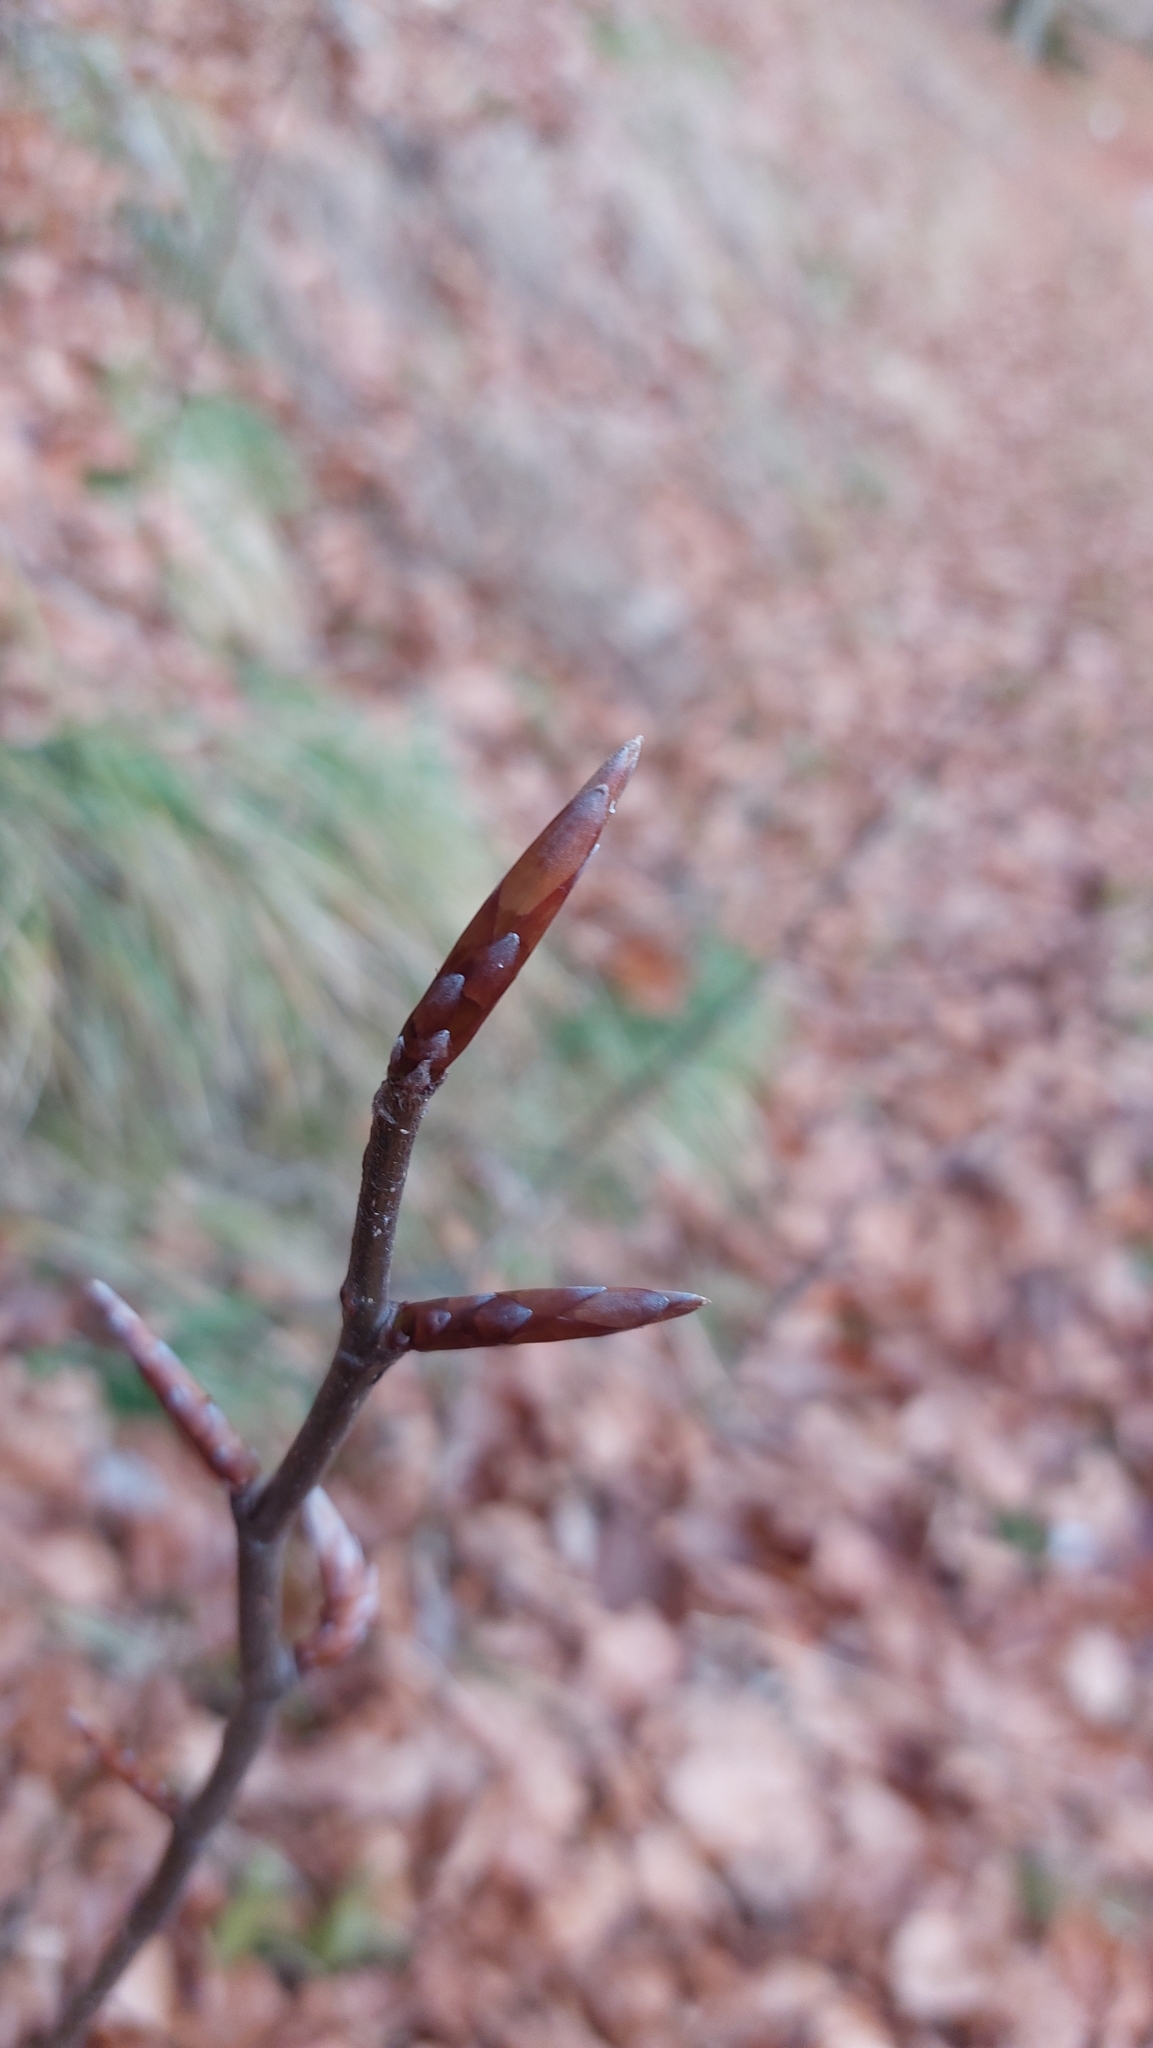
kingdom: Plantae
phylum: Tracheophyta
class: Magnoliopsida
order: Fagales
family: Fagaceae
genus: Fagus
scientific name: Fagus sylvatica
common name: Beech
